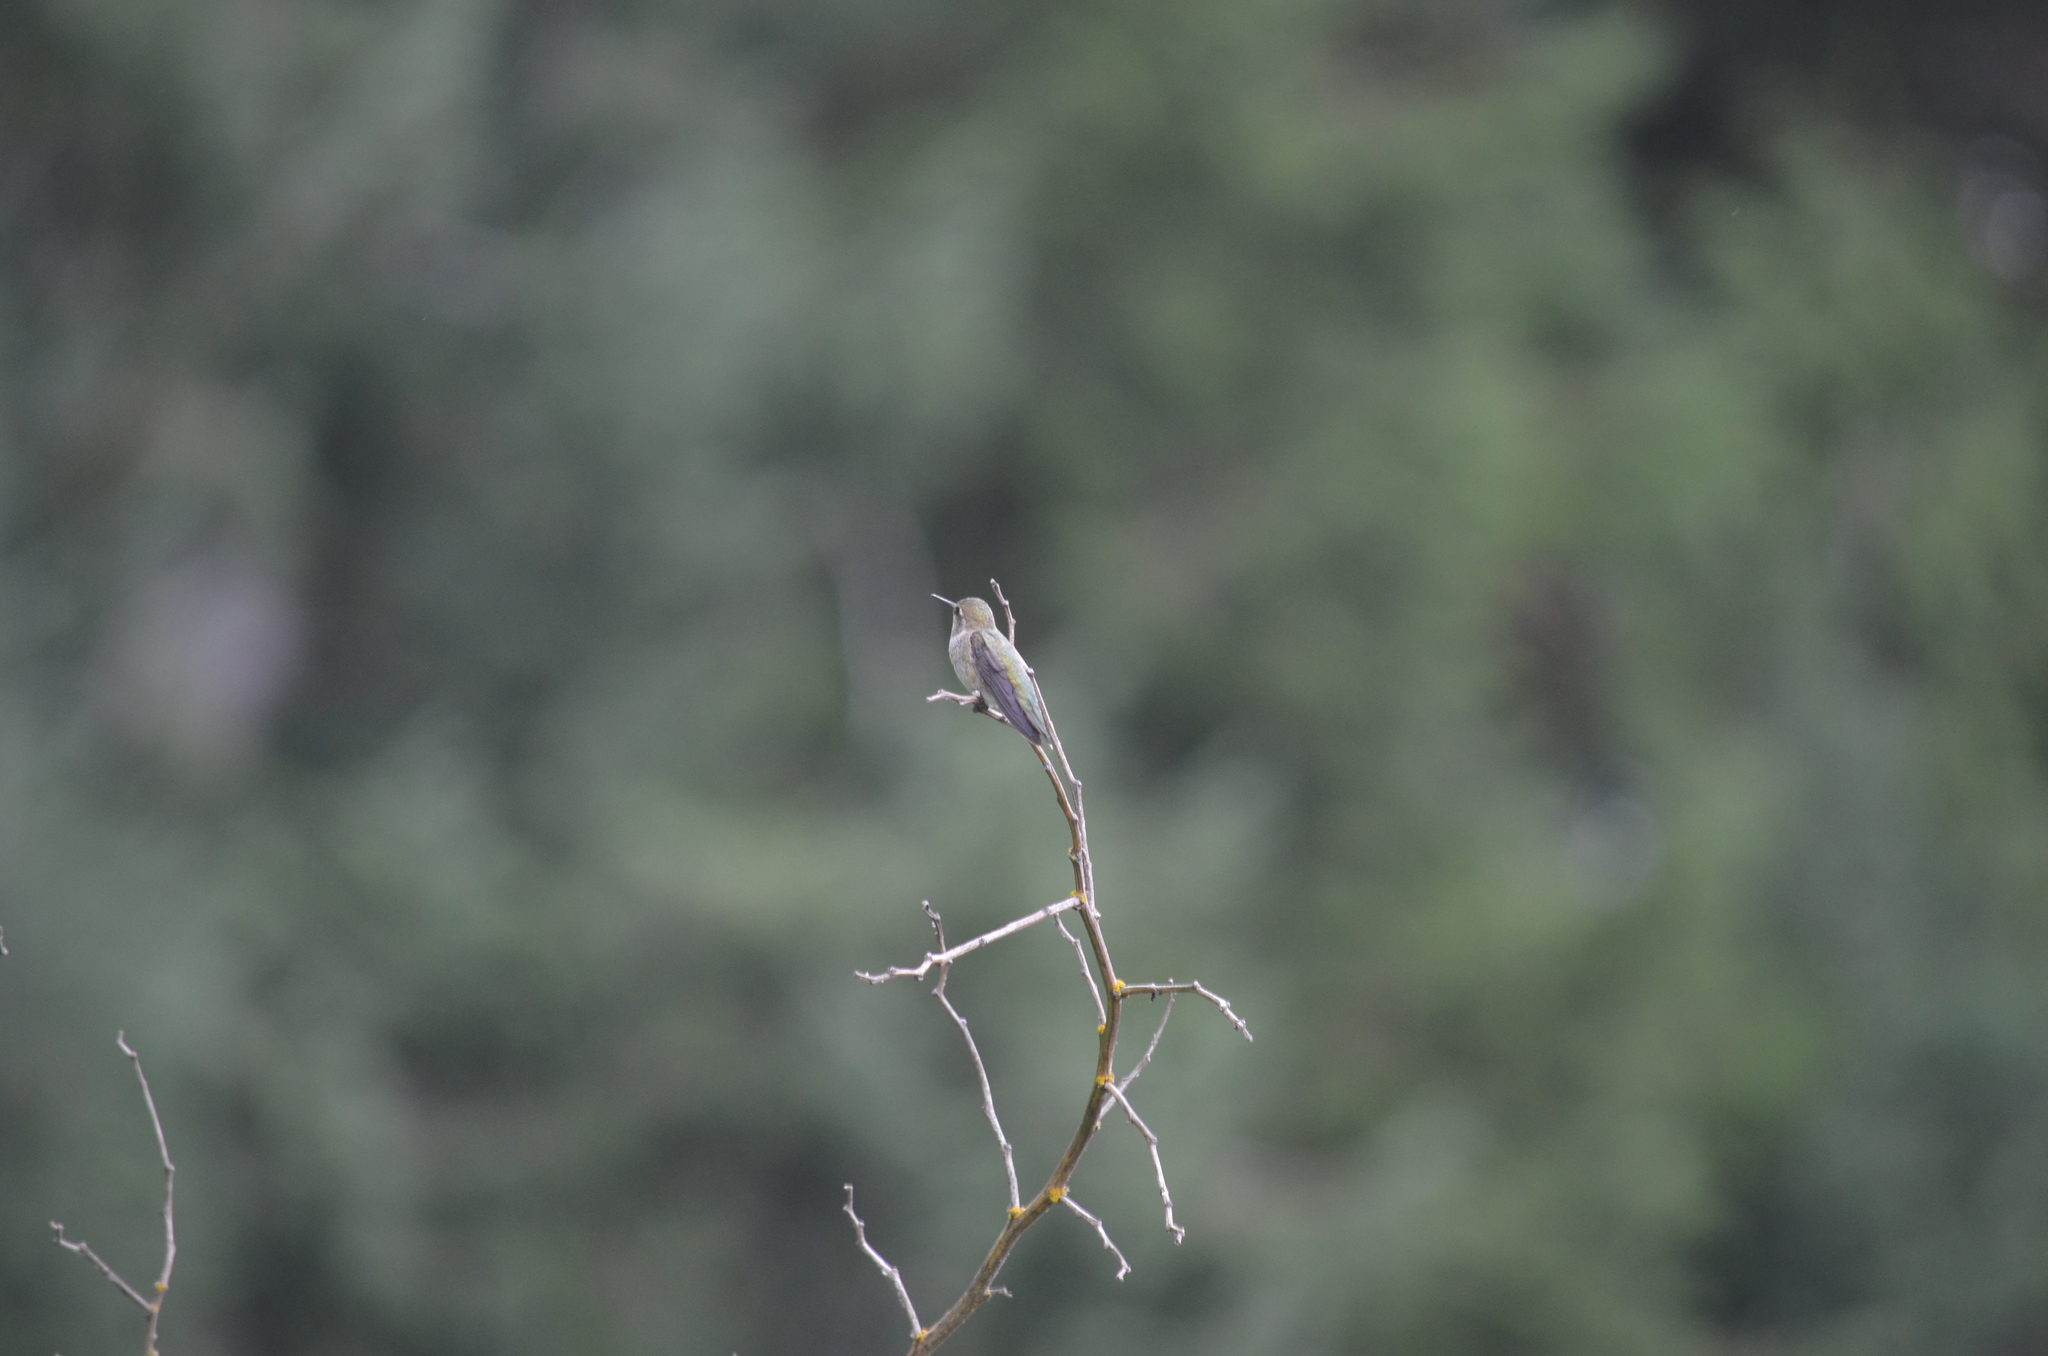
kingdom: Animalia
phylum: Chordata
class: Aves
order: Apodiformes
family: Trochilidae
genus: Calypte
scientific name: Calypte anna
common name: Anna's hummingbird
